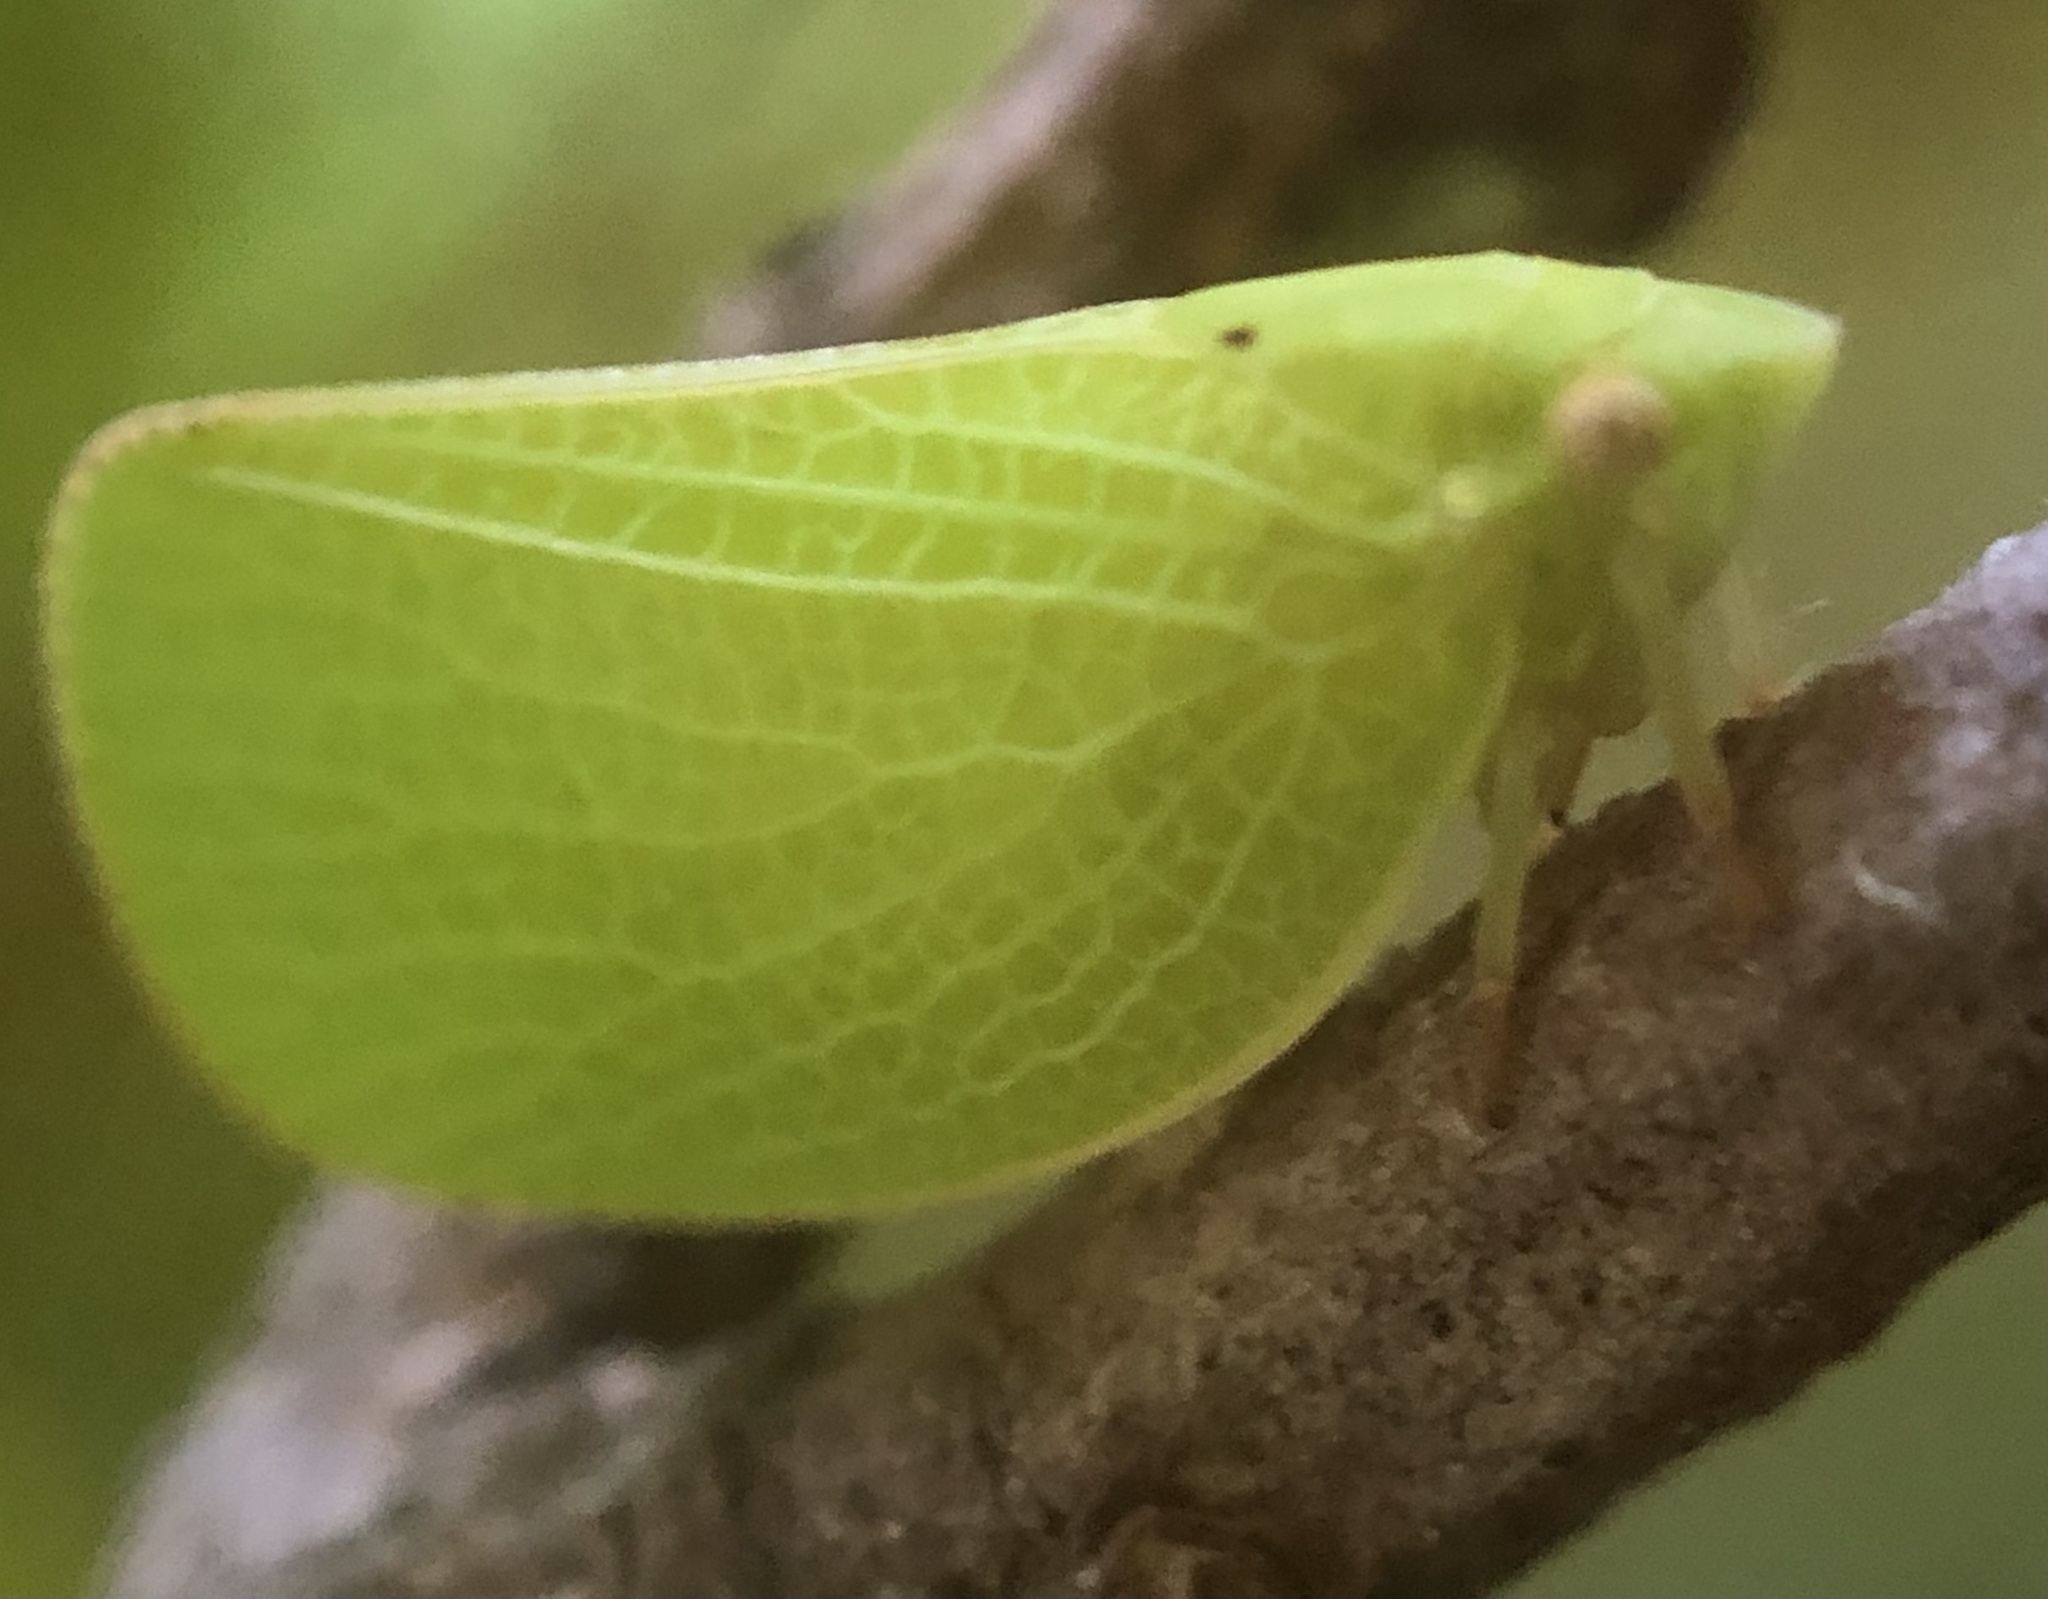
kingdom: Animalia
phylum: Arthropoda
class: Insecta
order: Hemiptera
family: Acanaloniidae
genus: Acanalonia
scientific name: Acanalonia conica
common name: Green cone-headed planthopper
